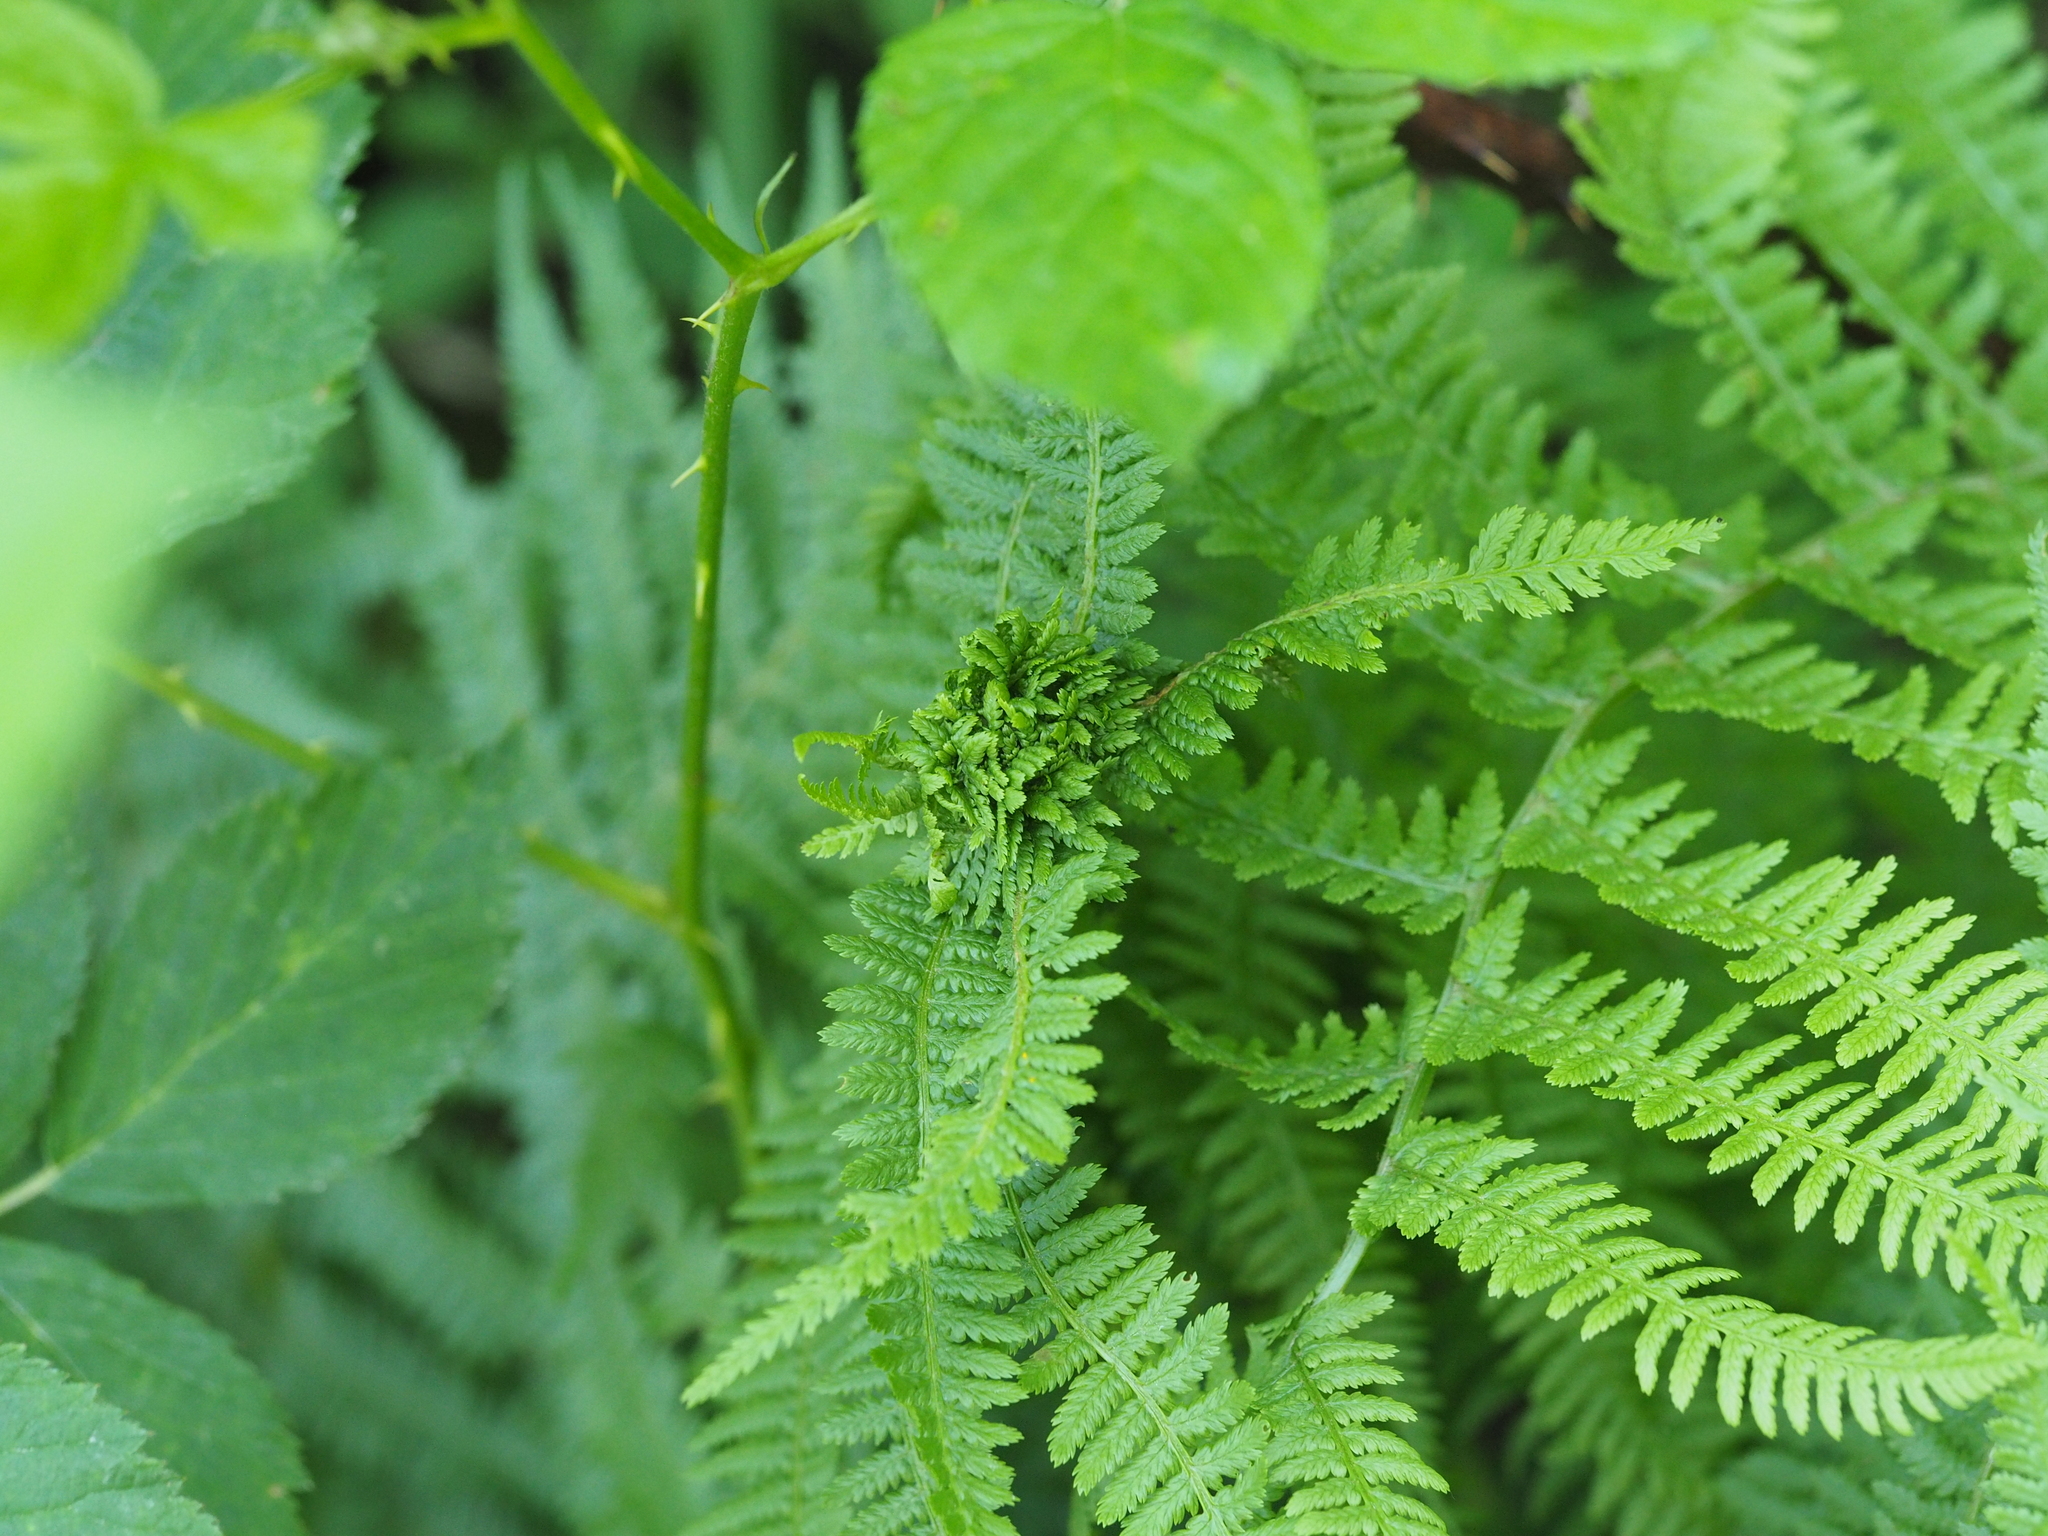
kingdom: Animalia
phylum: Arthropoda
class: Insecta
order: Diptera
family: Anthomyiidae
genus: Chirosia
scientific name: Chirosia betuleti
